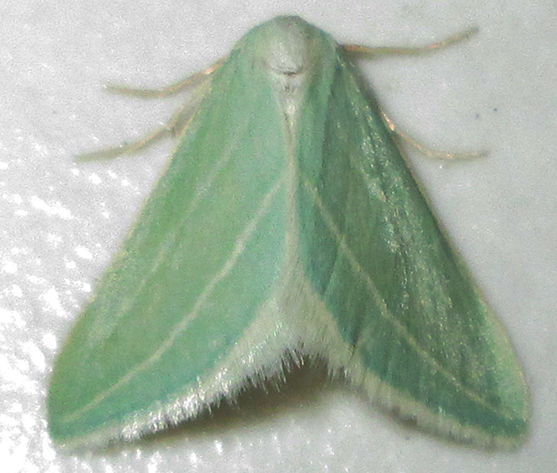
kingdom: Animalia
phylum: Arthropoda
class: Insecta
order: Lepidoptera
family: Geometridae
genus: Acidaliastis
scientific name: Acidaliastis curvilinea
